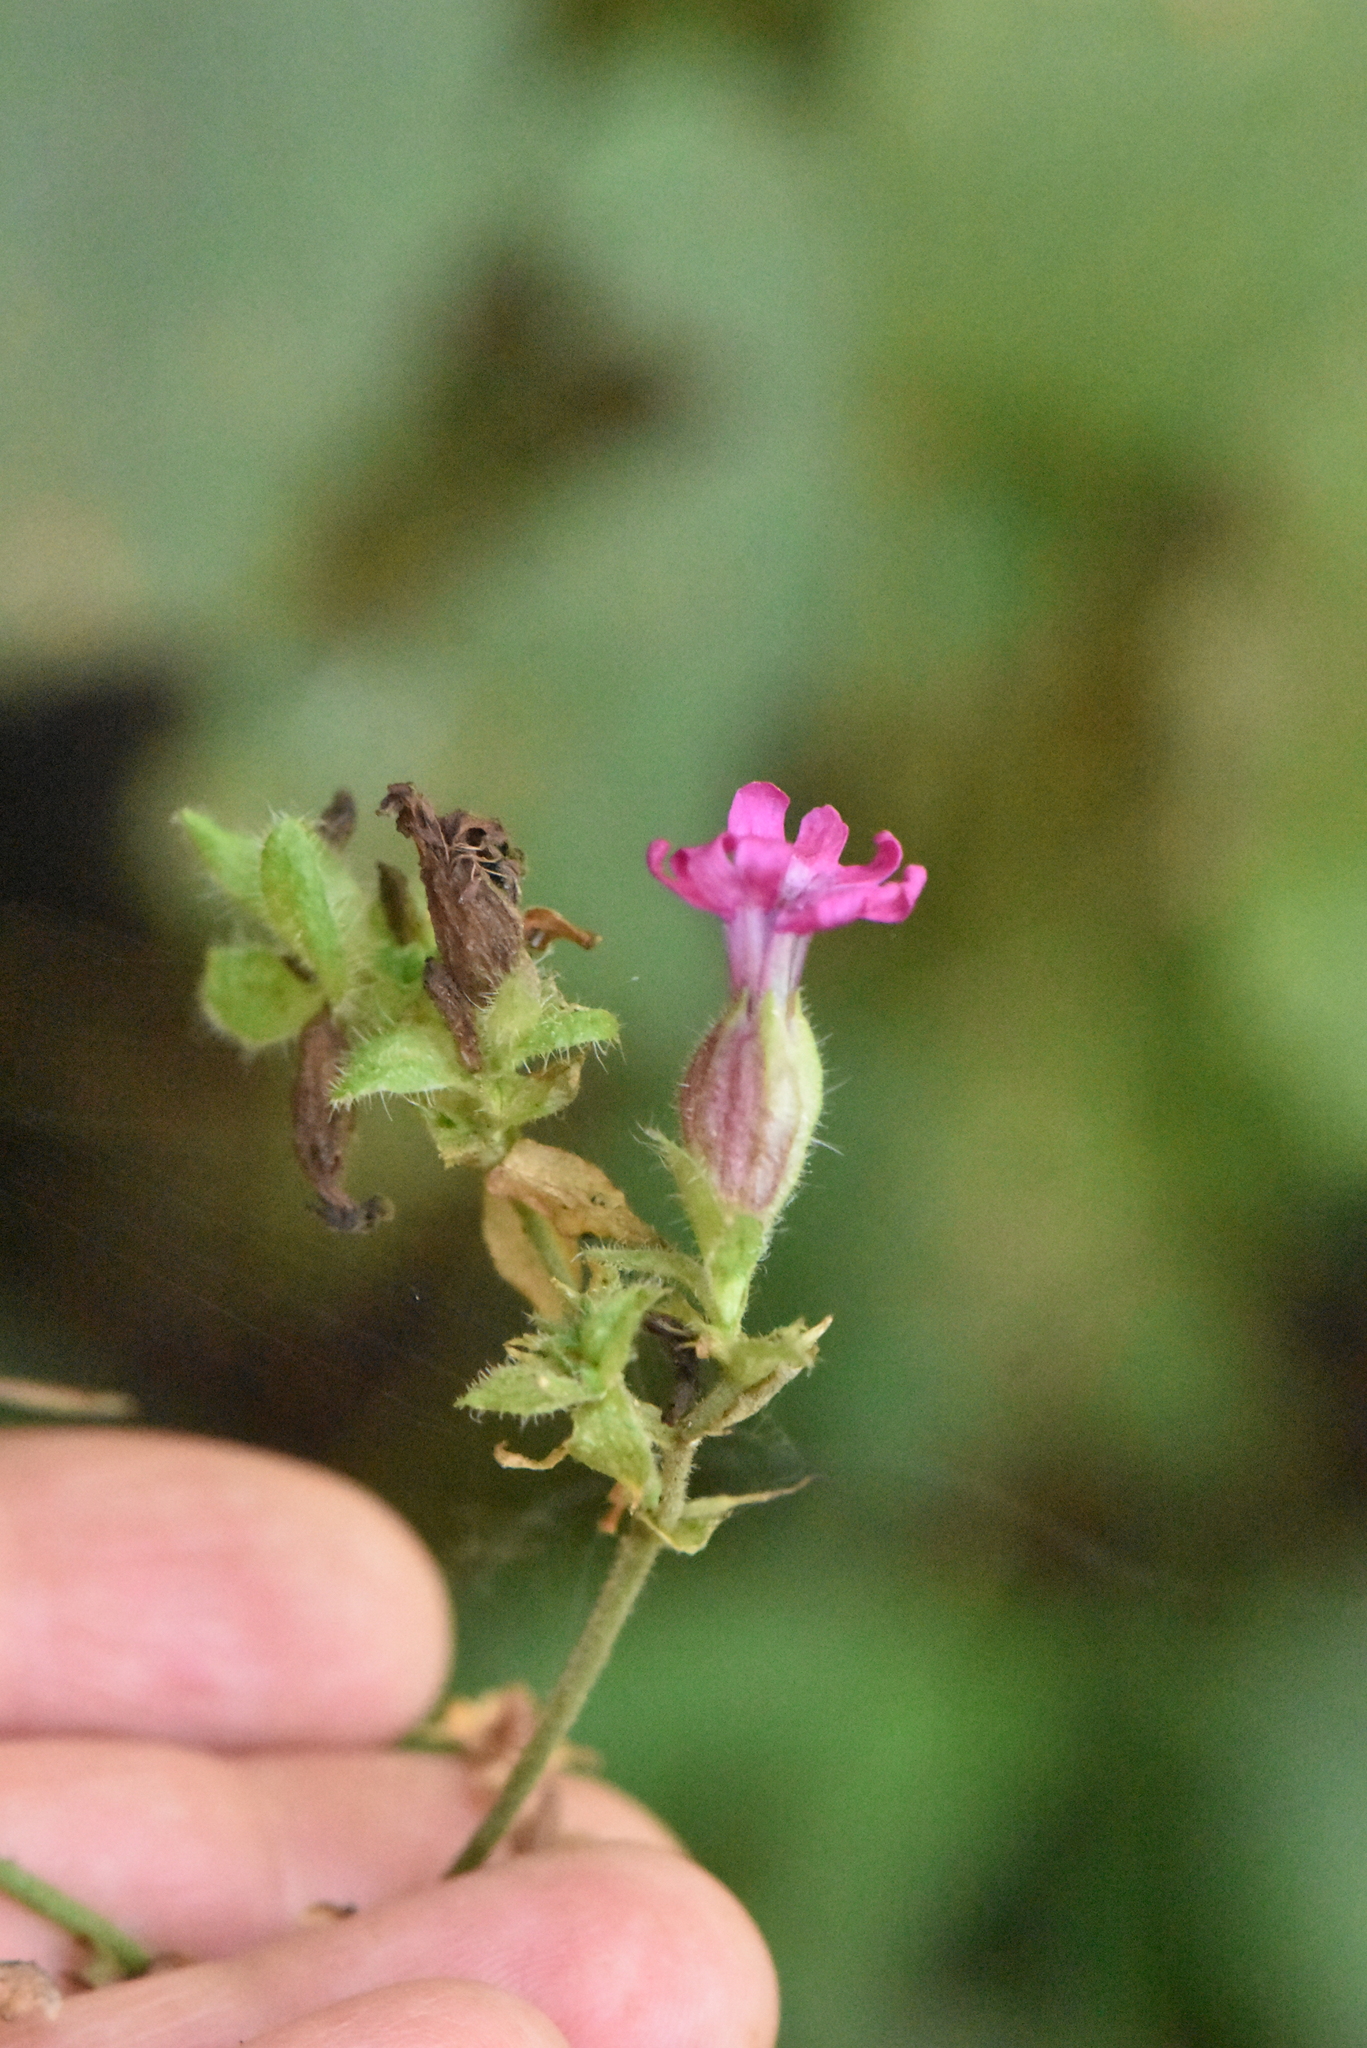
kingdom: Plantae
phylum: Tracheophyta
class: Magnoliopsida
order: Caryophyllales
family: Caryophyllaceae
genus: Silene
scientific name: Silene dioica
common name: Red campion
